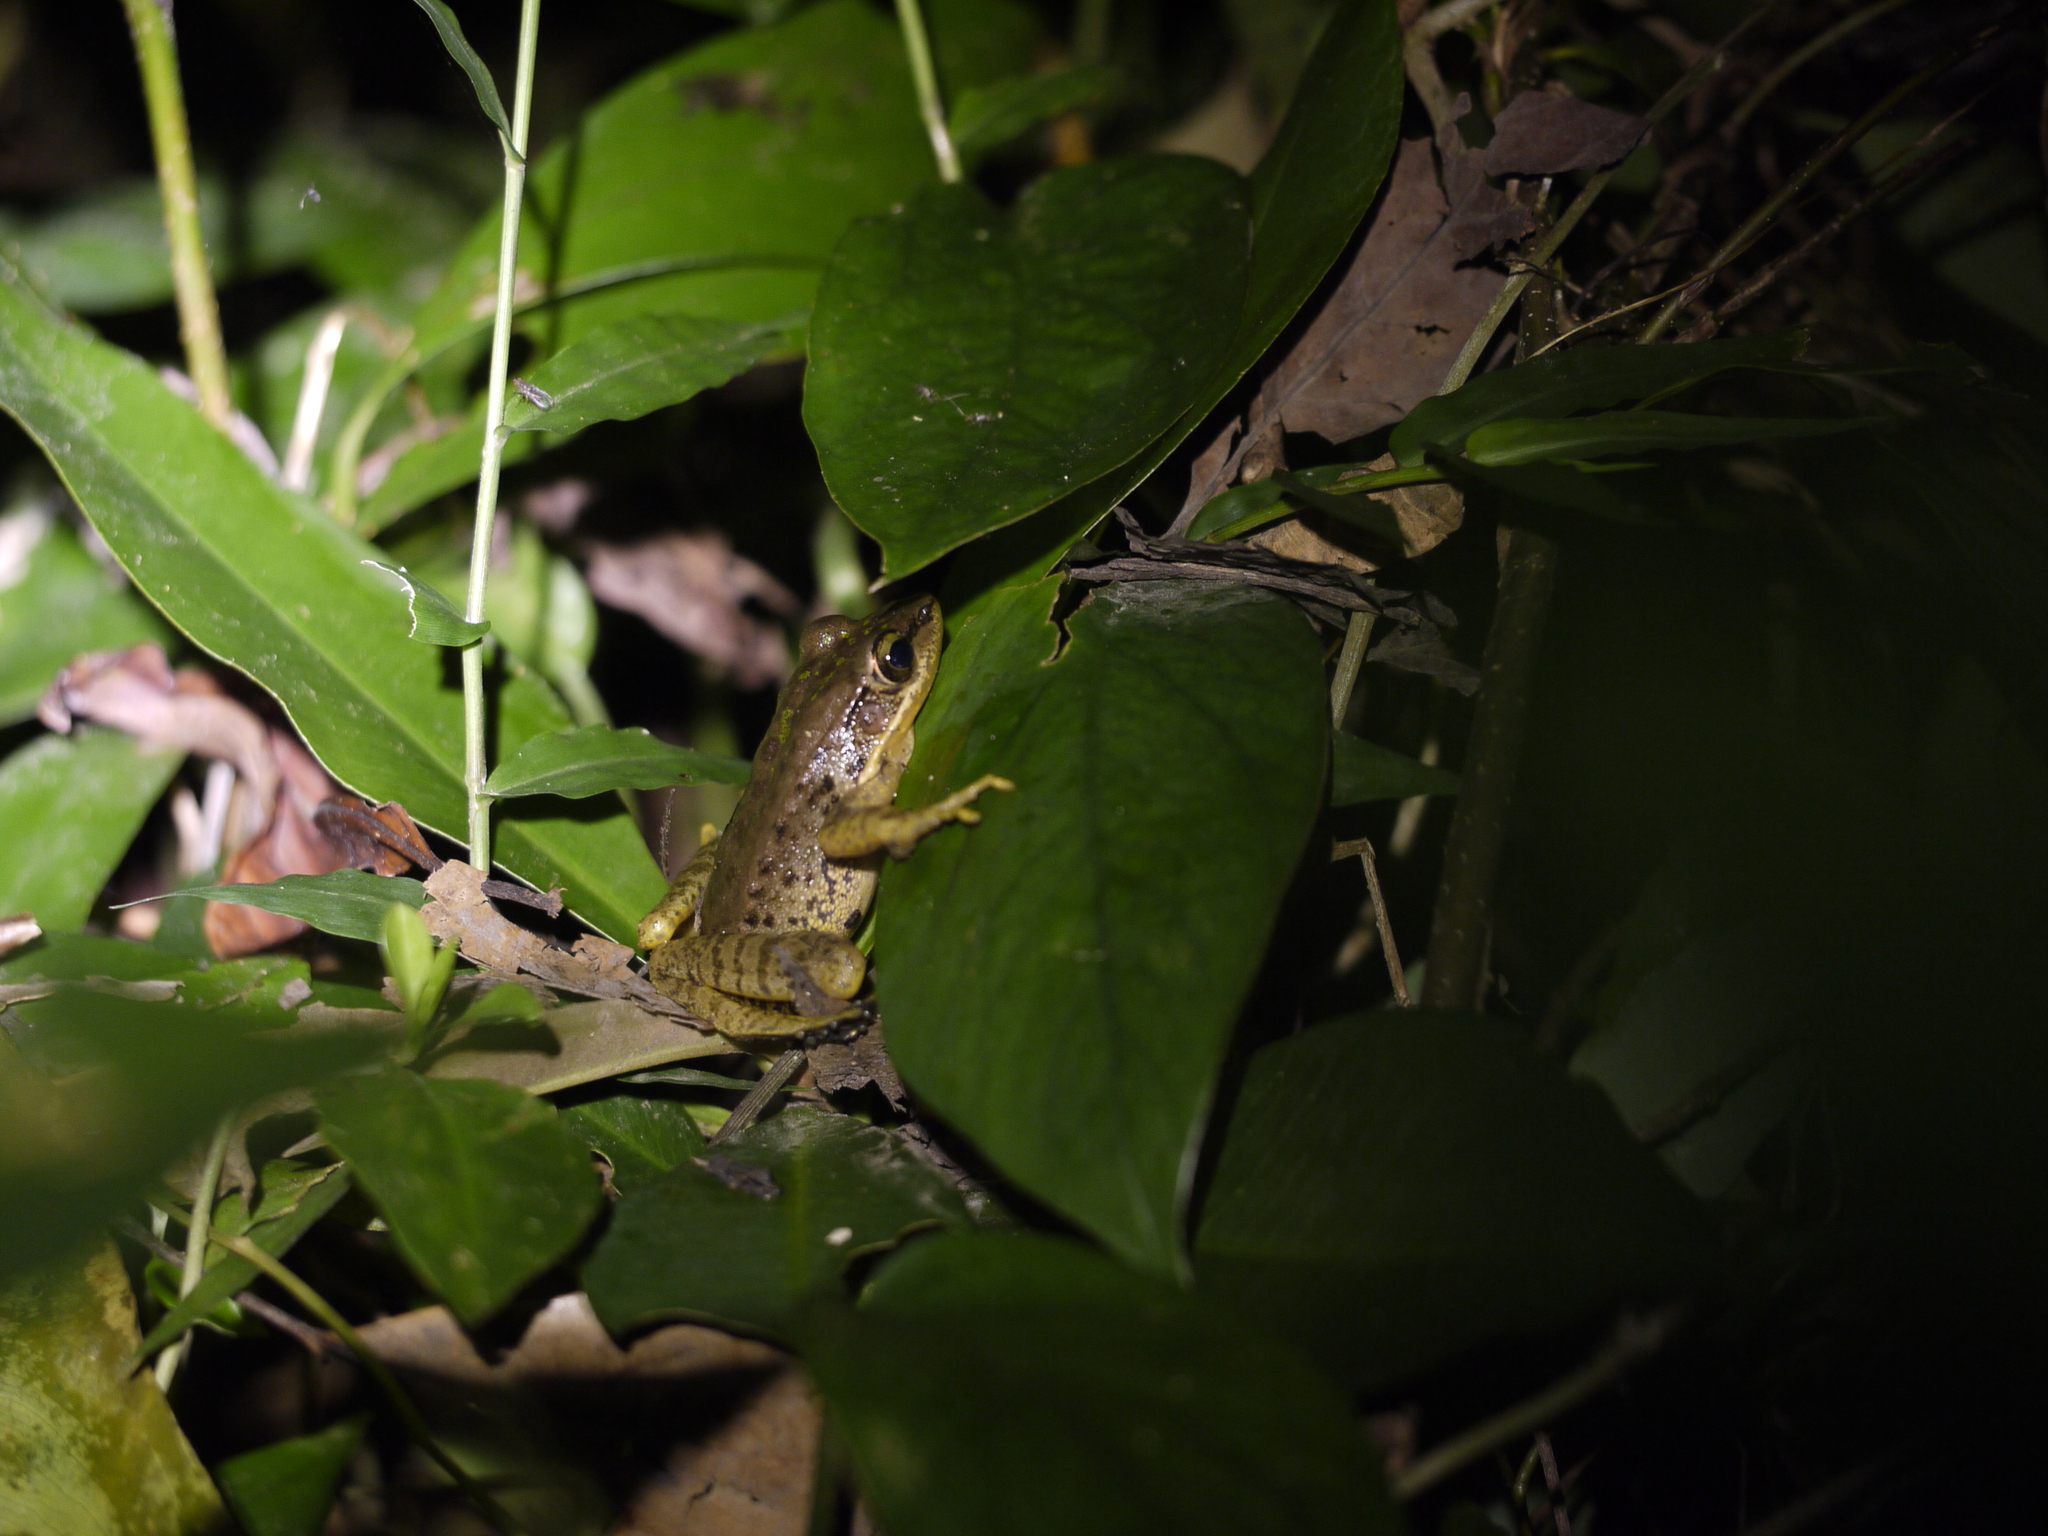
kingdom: Animalia
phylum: Chordata
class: Amphibia
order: Anura
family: Ranidae
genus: Odorrana
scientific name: Odorrana swinhoana
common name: Bangkimtsing frog
